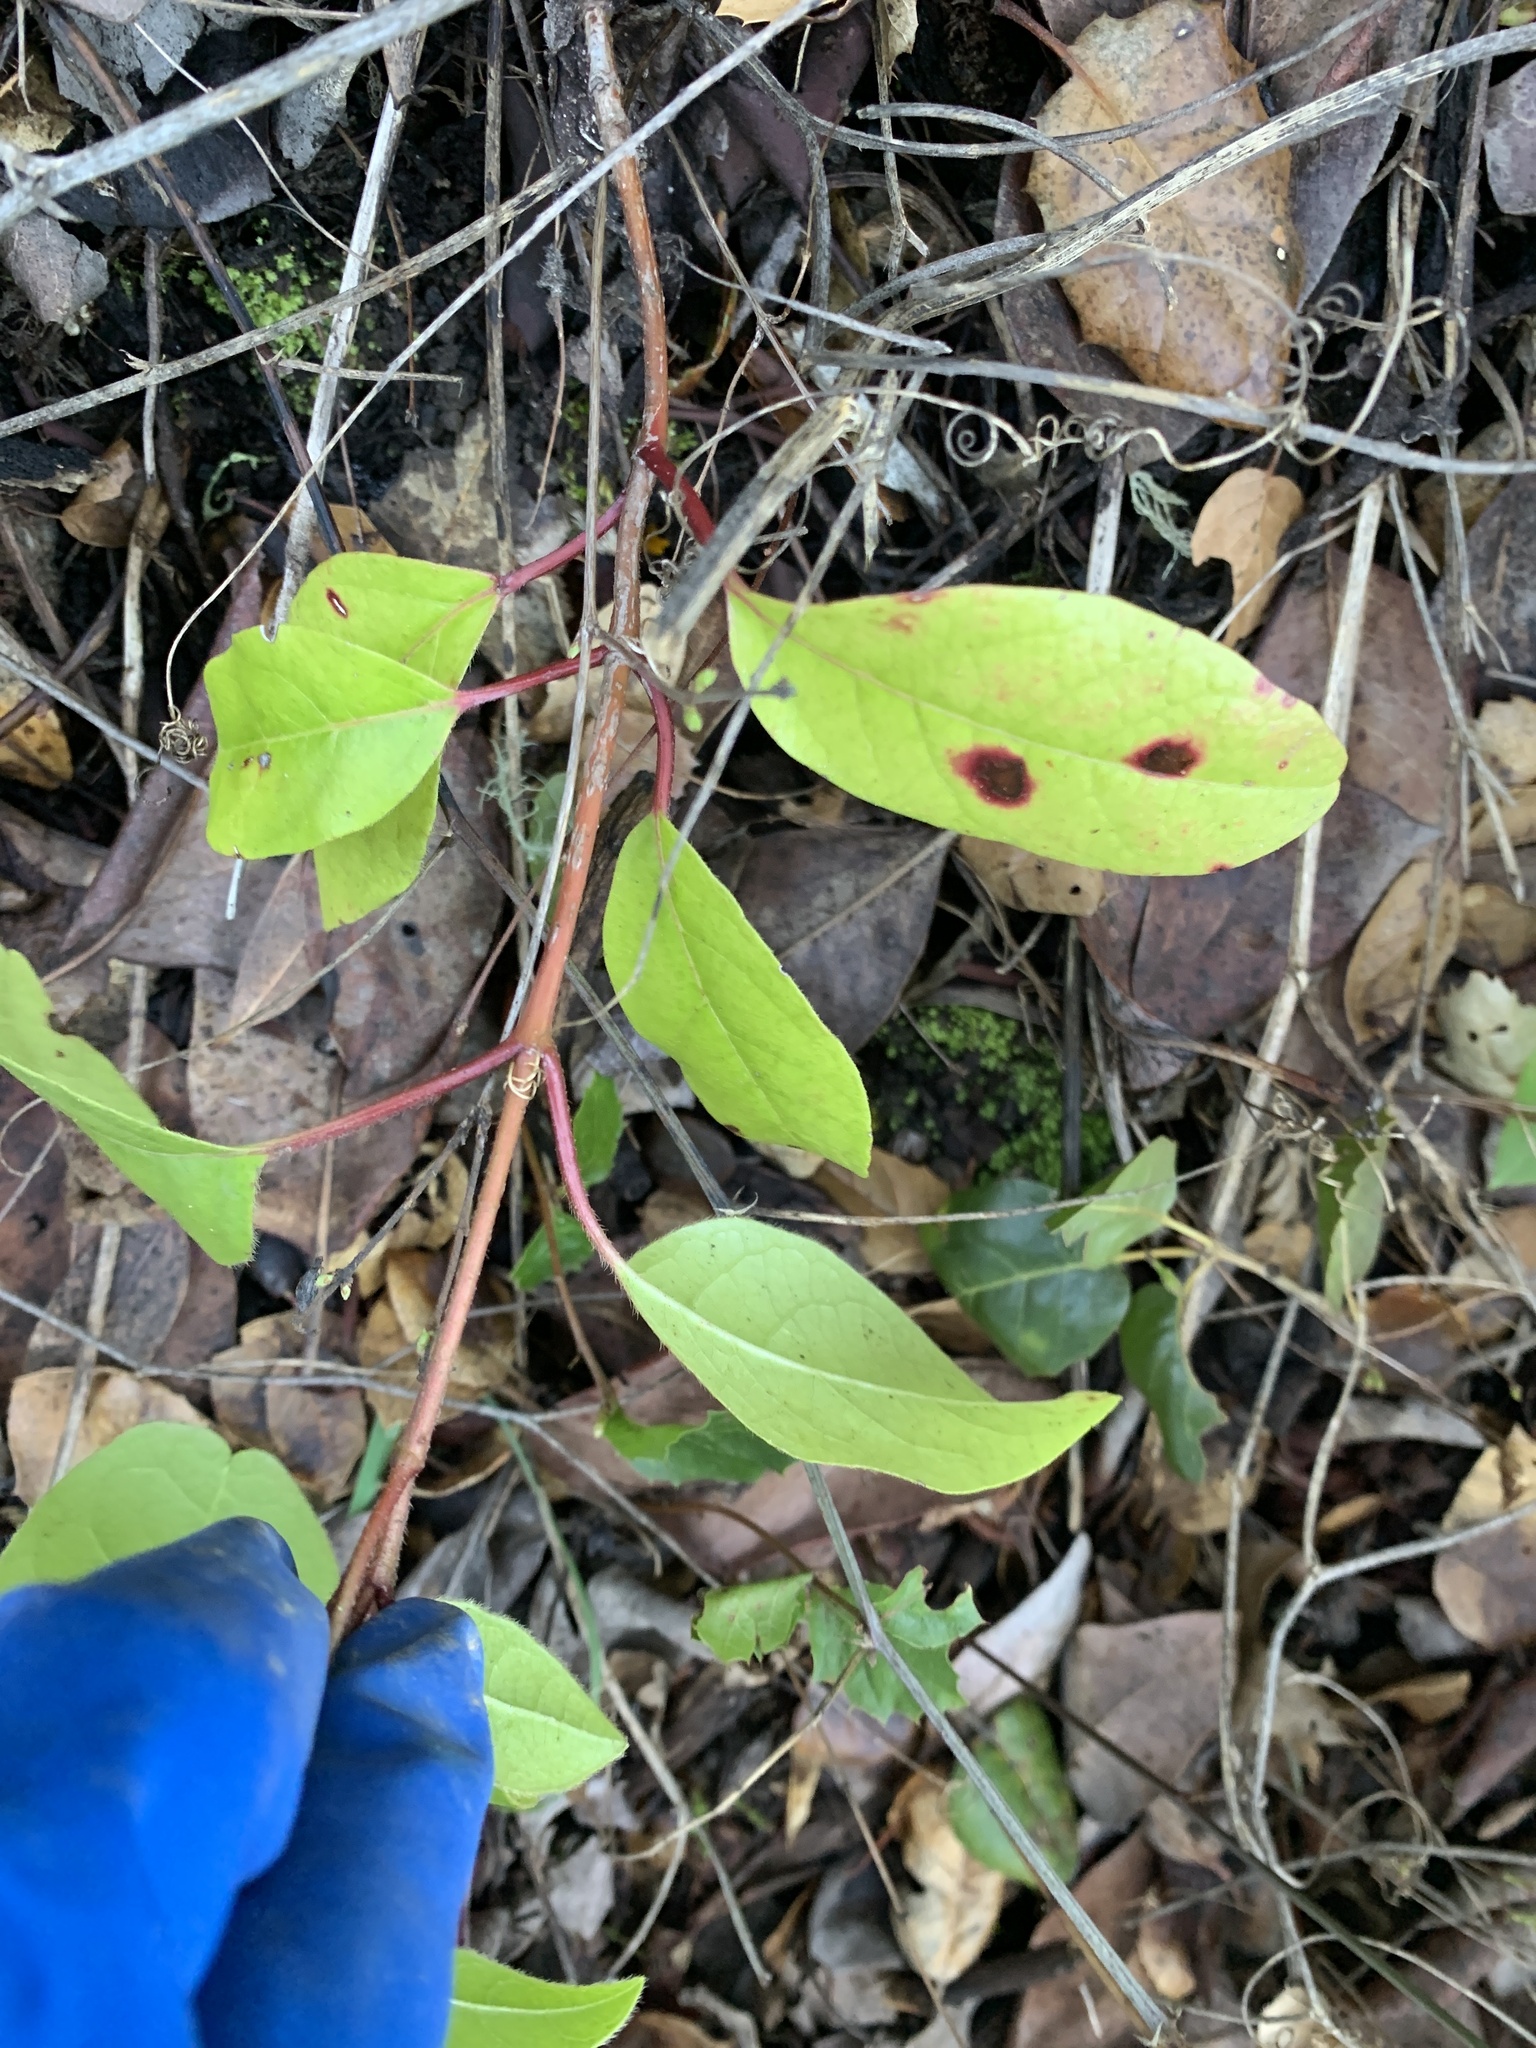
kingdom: Plantae
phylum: Tracheophyta
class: Magnoliopsida
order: Dipsacales
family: Viburnaceae
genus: Viburnum
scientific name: Viburnum tinus
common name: Laurustinus
